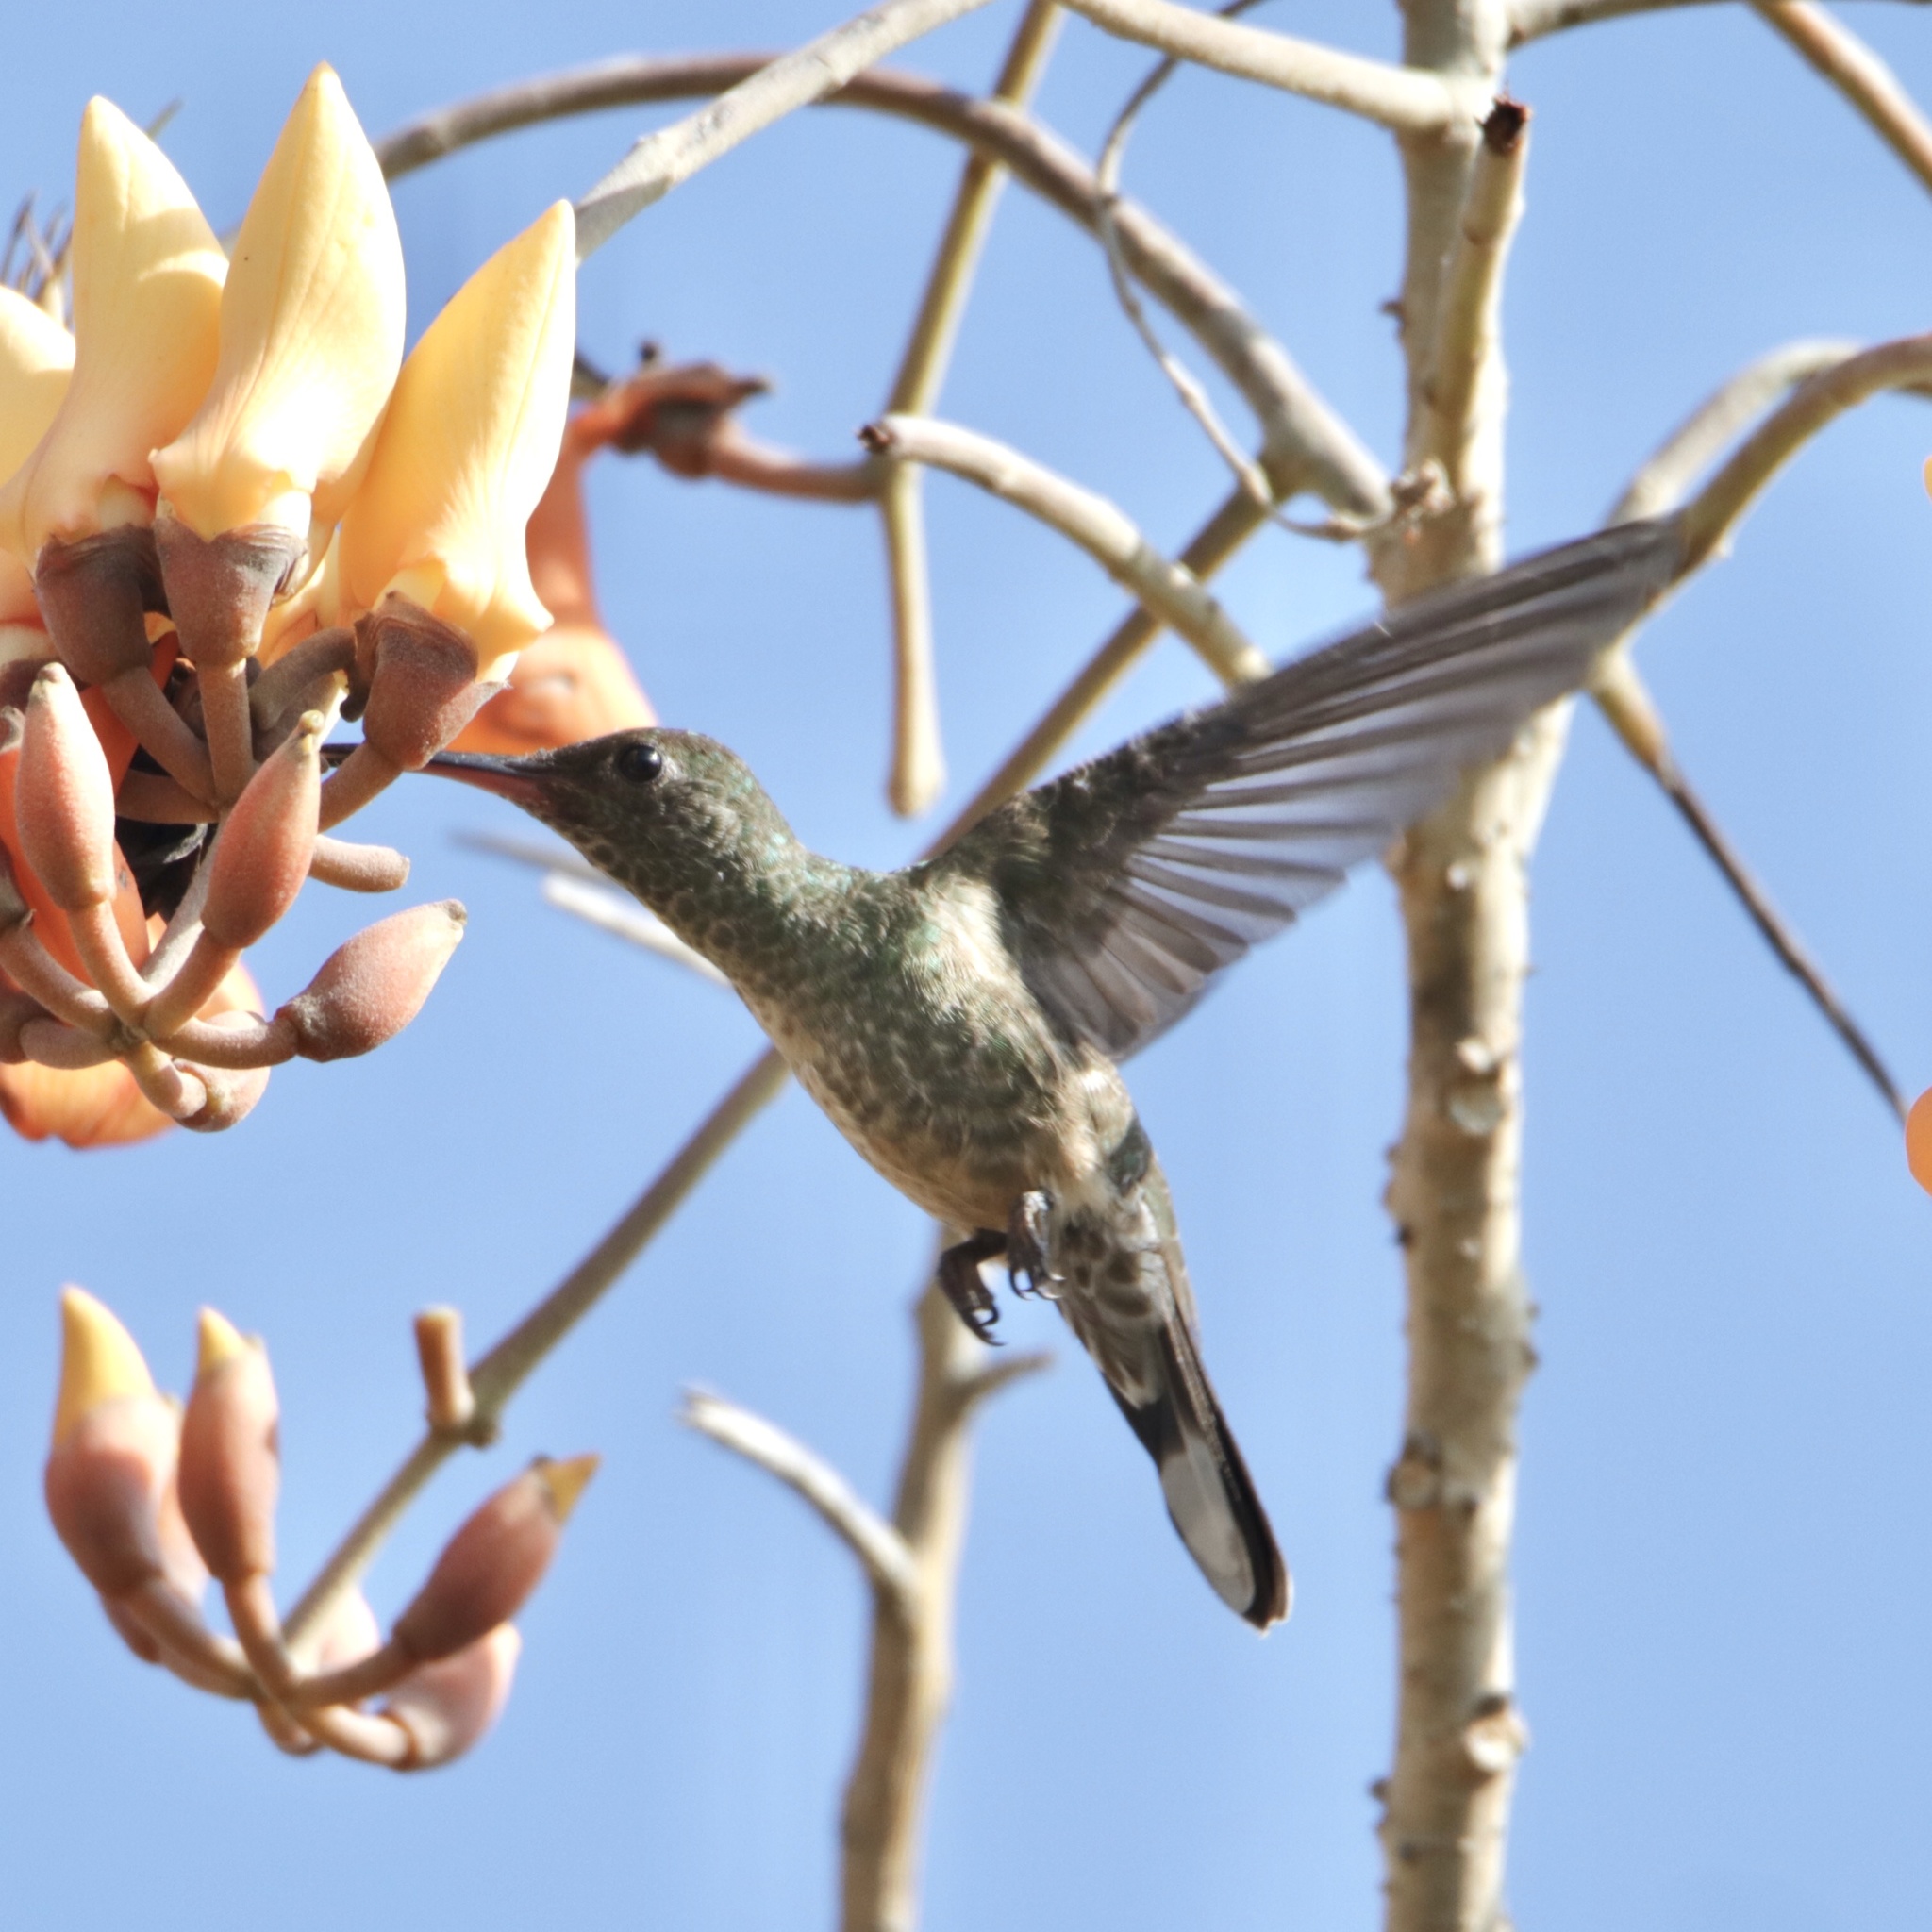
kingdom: Animalia
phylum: Chordata
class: Aves
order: Apodiformes
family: Trochilidae
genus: Phaeochroa
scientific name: Phaeochroa cuvierii
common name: Scaly-breasted hummingbird
